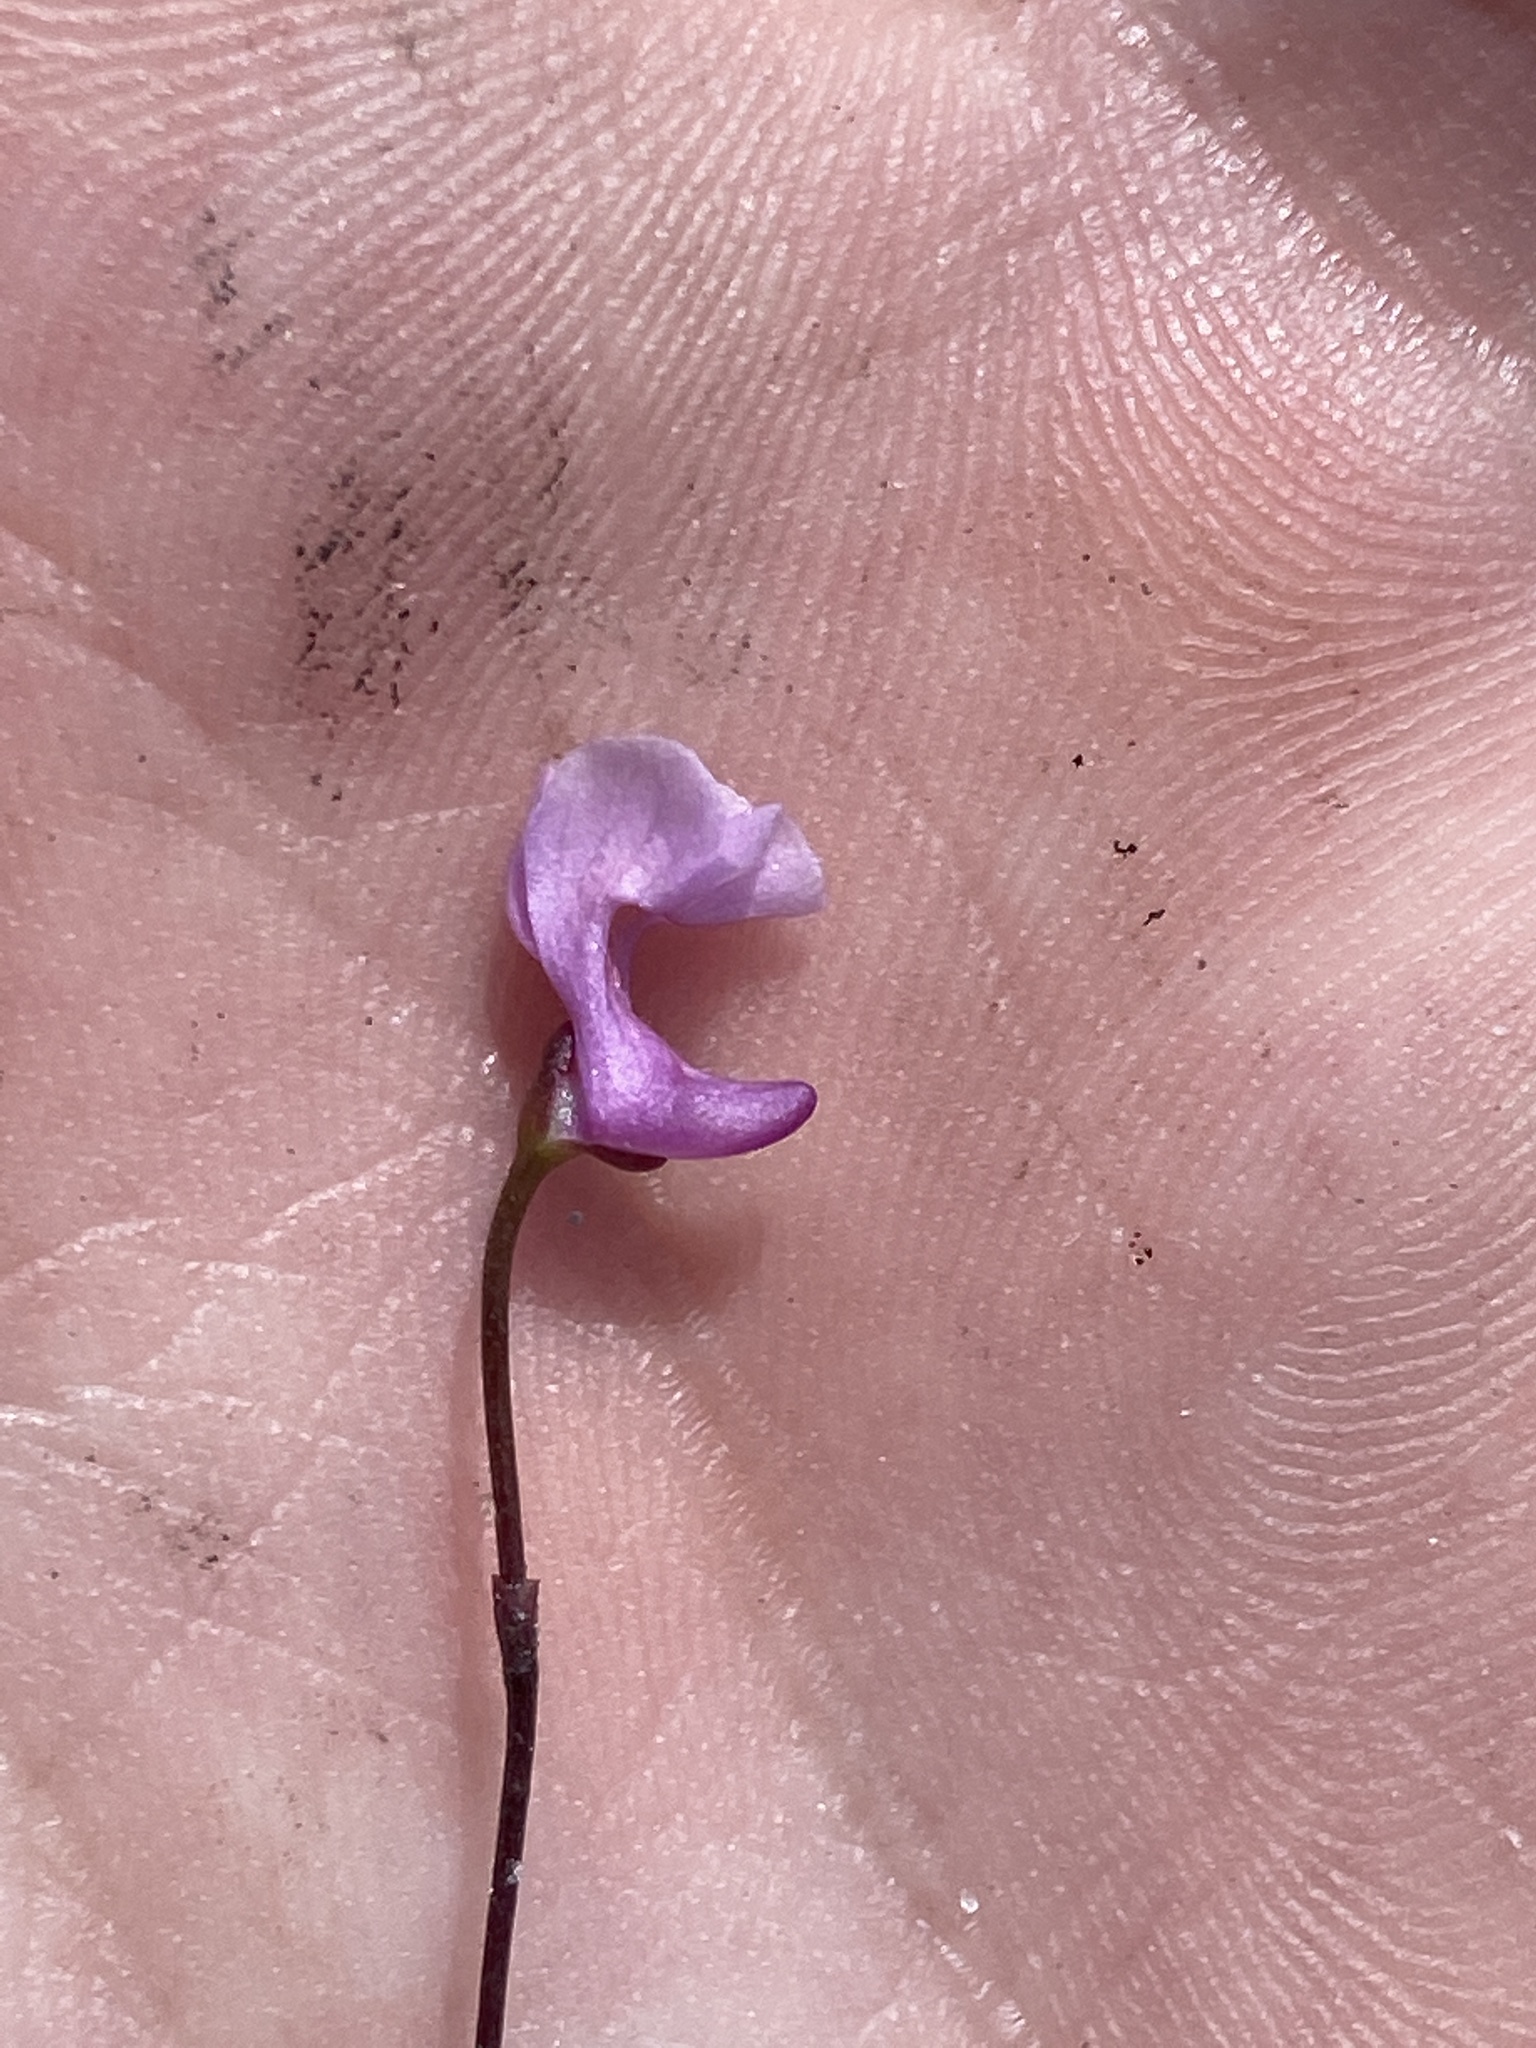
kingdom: Plantae
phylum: Tracheophyta
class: Magnoliopsida
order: Lamiales
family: Lentibulariaceae
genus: Utricularia
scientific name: Utricularia resupinata
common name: Northeastern bladderwort
